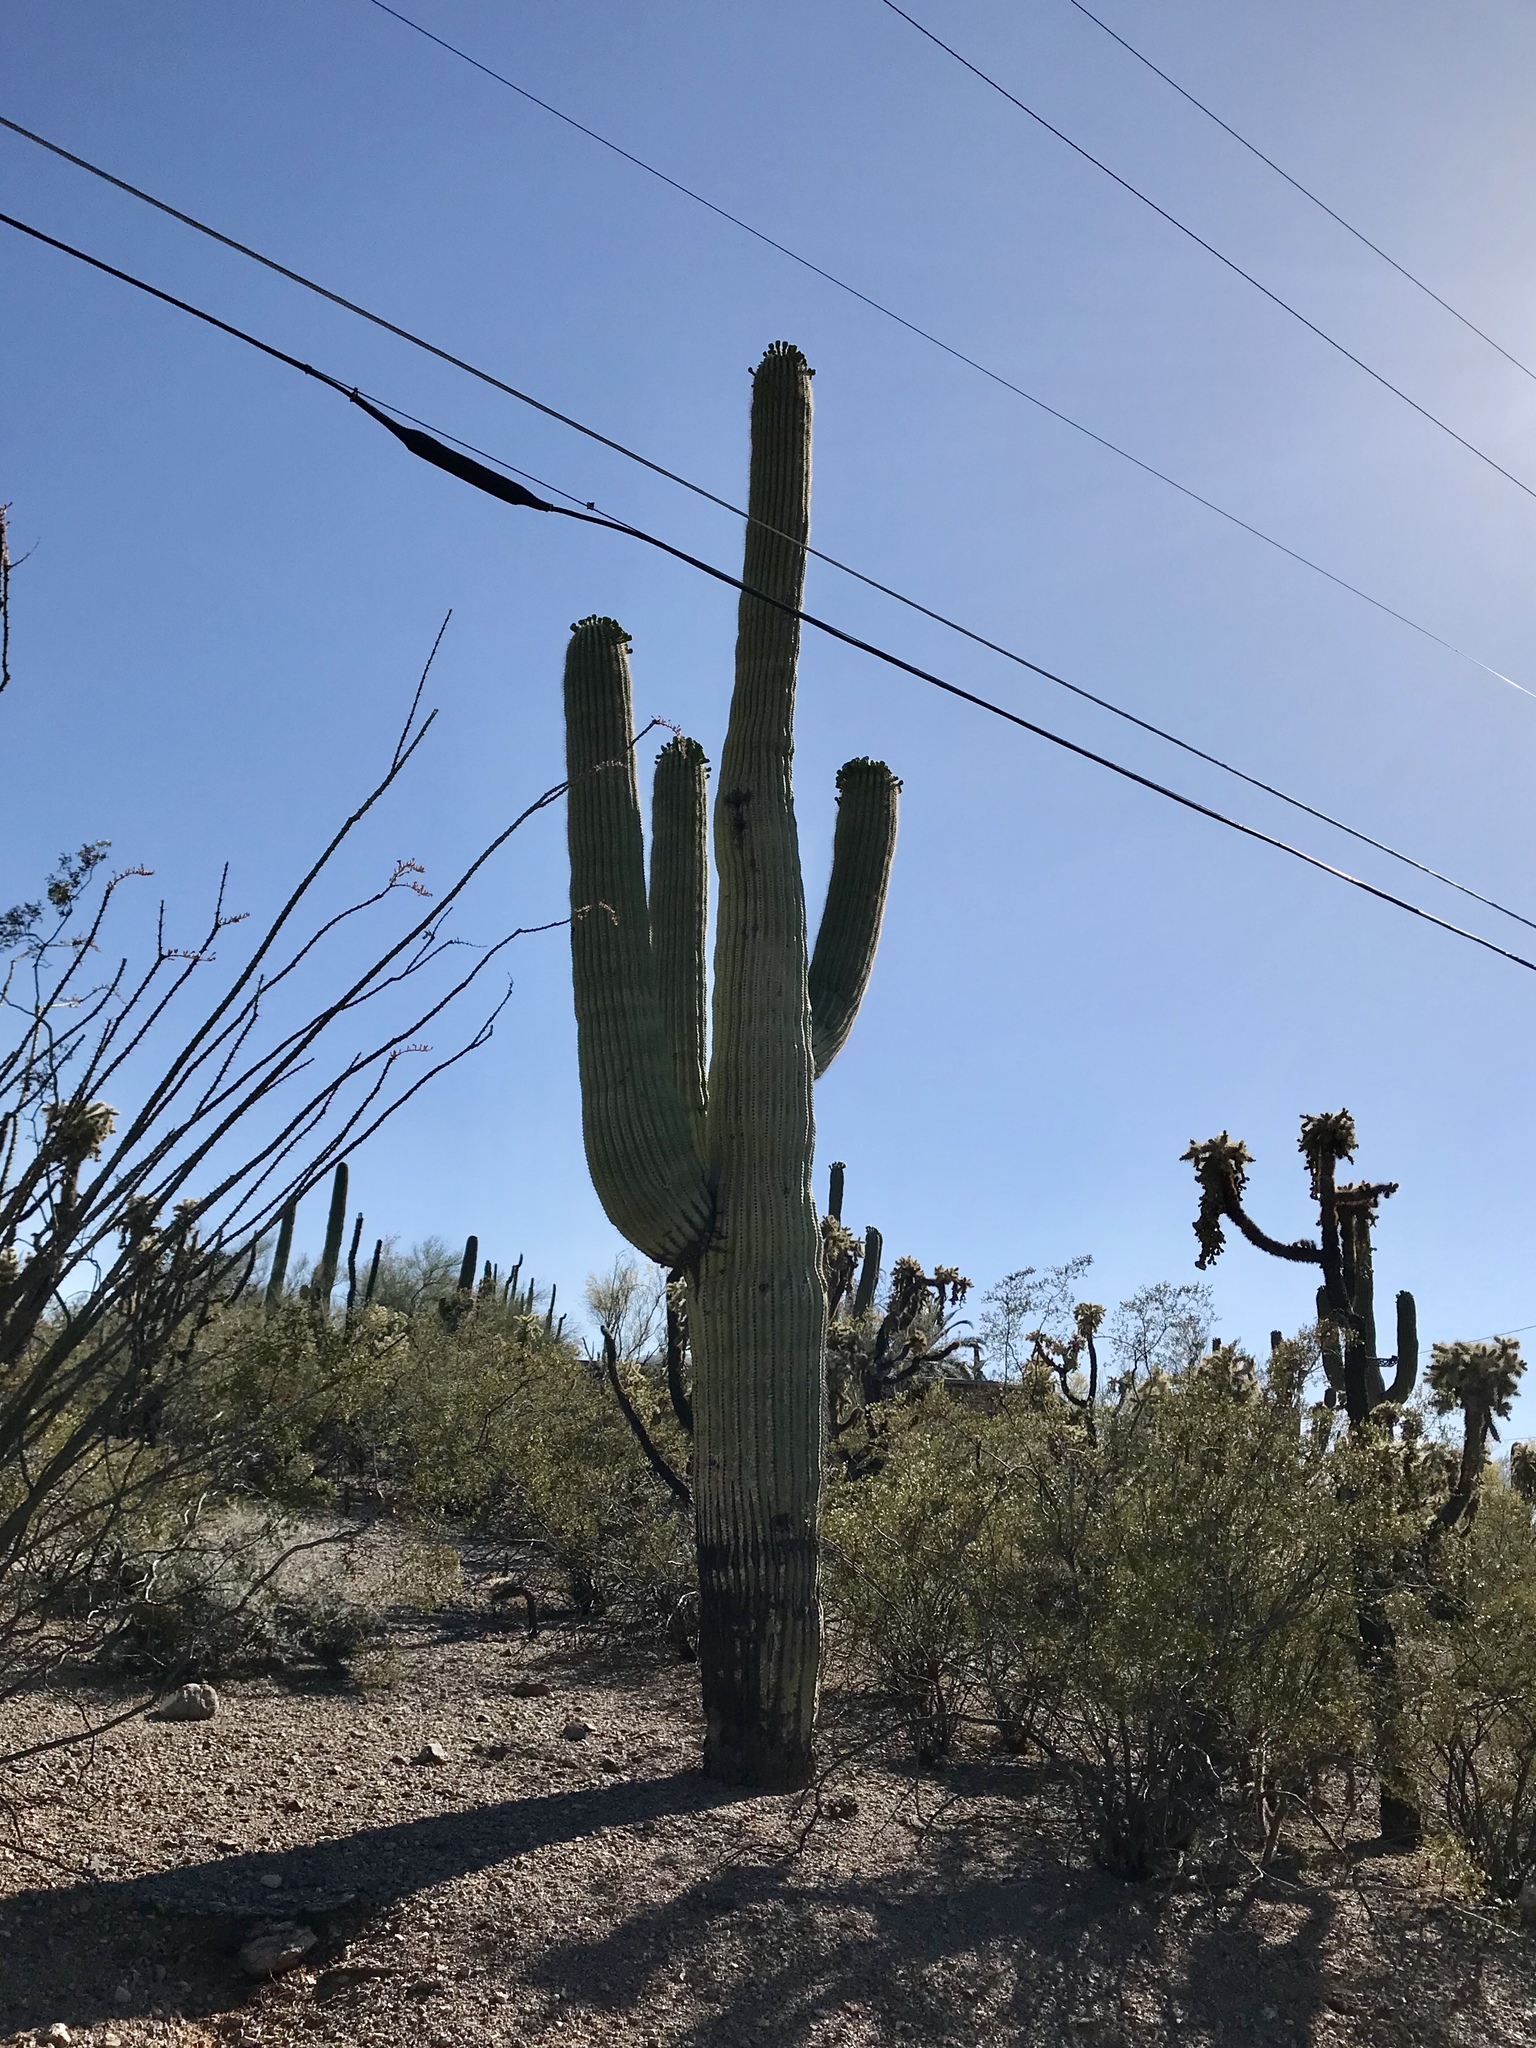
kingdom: Plantae
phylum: Tracheophyta
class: Magnoliopsida
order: Caryophyllales
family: Cactaceae
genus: Carnegiea
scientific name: Carnegiea gigantea
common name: Saguaro
